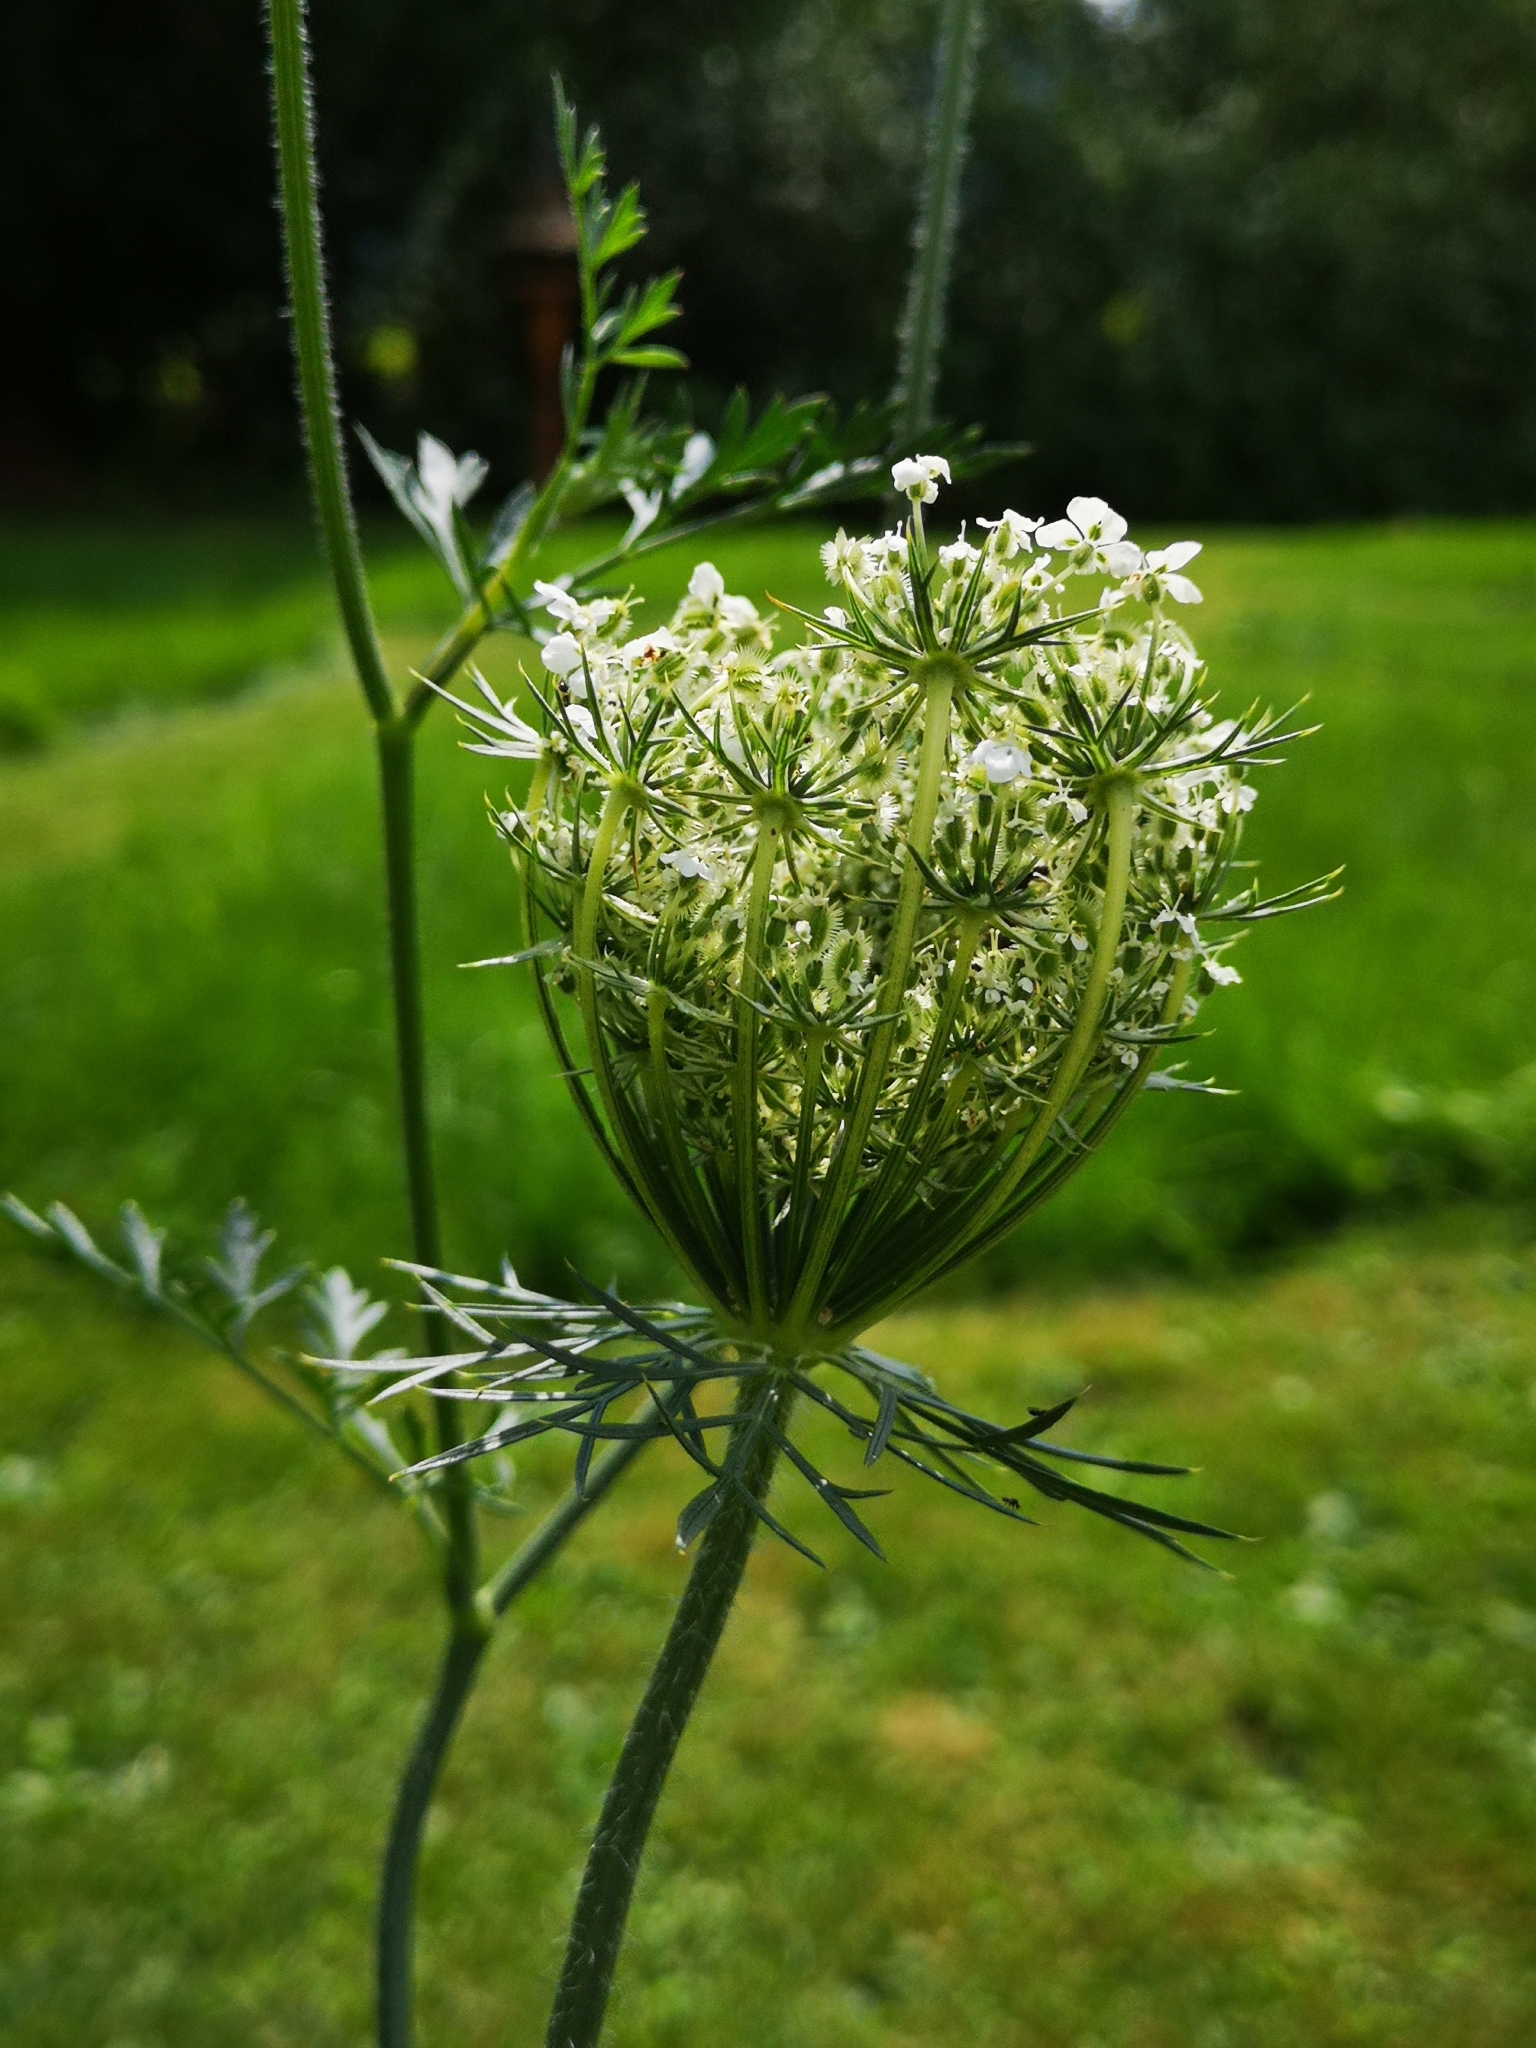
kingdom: Plantae
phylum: Tracheophyta
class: Magnoliopsida
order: Apiales
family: Apiaceae
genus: Daucus
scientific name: Daucus carota
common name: Wild carrot
